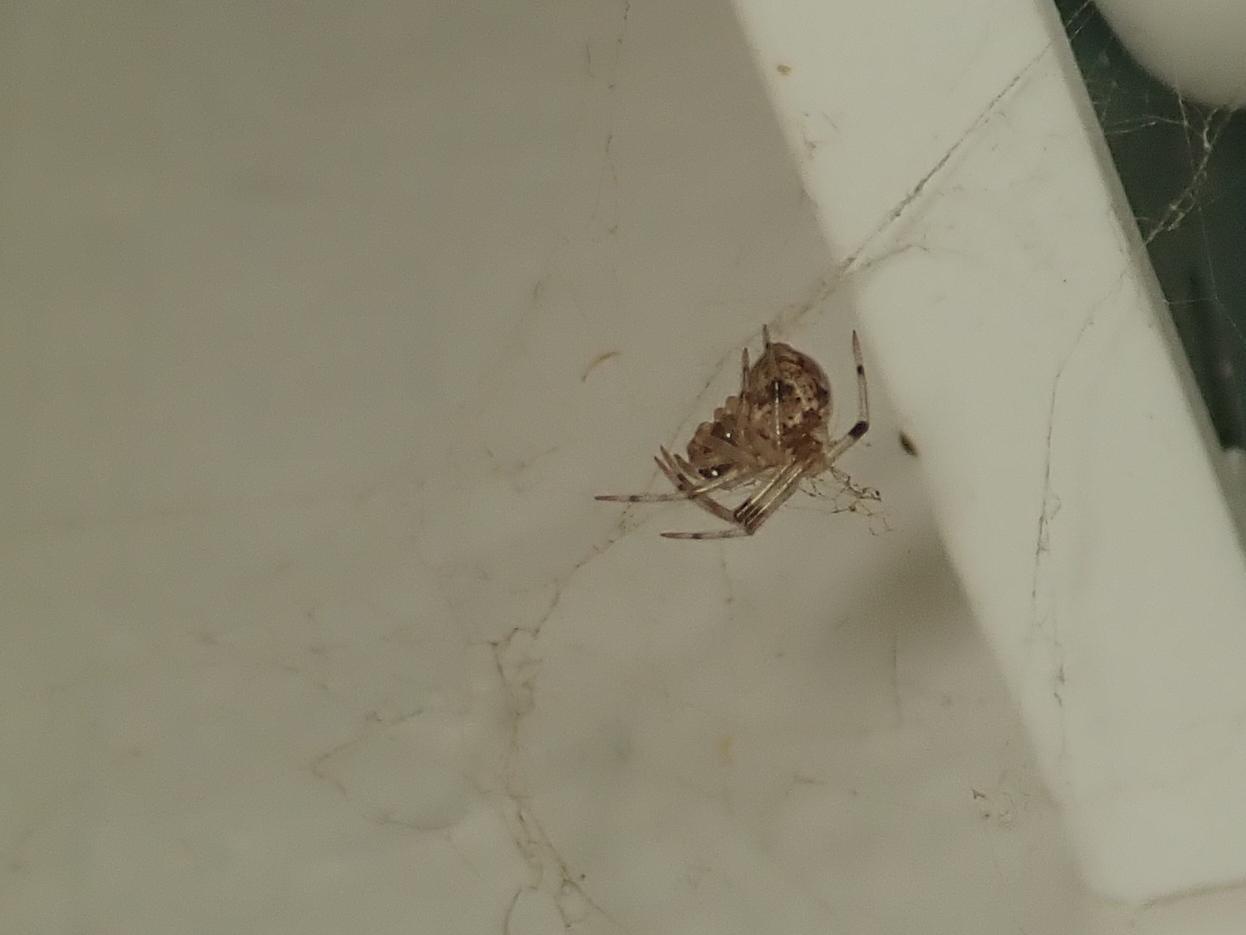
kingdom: Animalia
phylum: Arthropoda
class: Arachnida
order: Araneae
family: Theridiidae
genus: Parasteatoda
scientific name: Parasteatoda tepidariorum
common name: Common house spider
